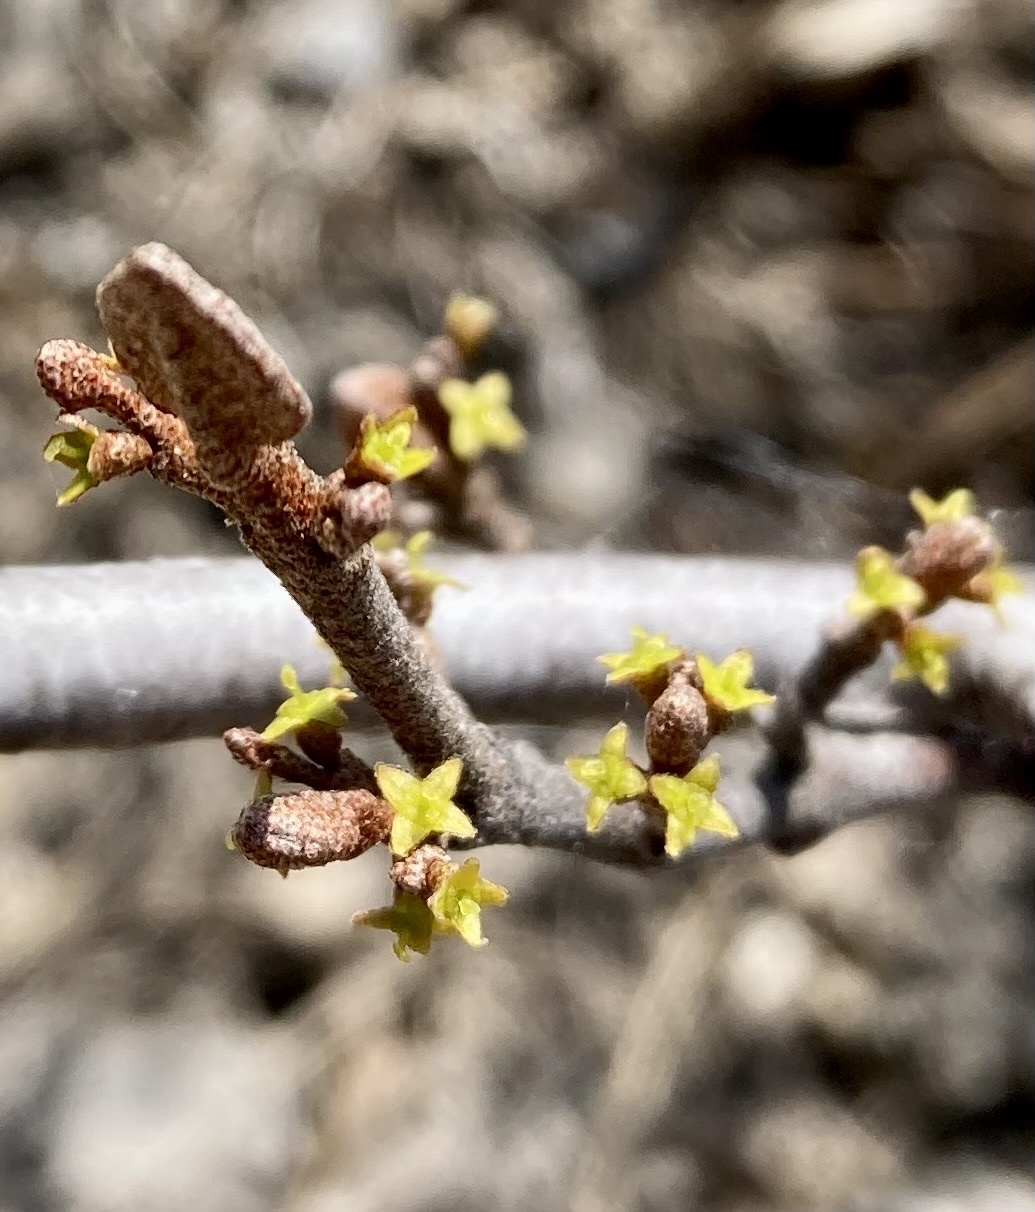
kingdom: Plantae
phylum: Tracheophyta
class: Magnoliopsida
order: Rosales
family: Elaeagnaceae
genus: Shepherdia
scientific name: Shepherdia canadensis
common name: Soapberry
